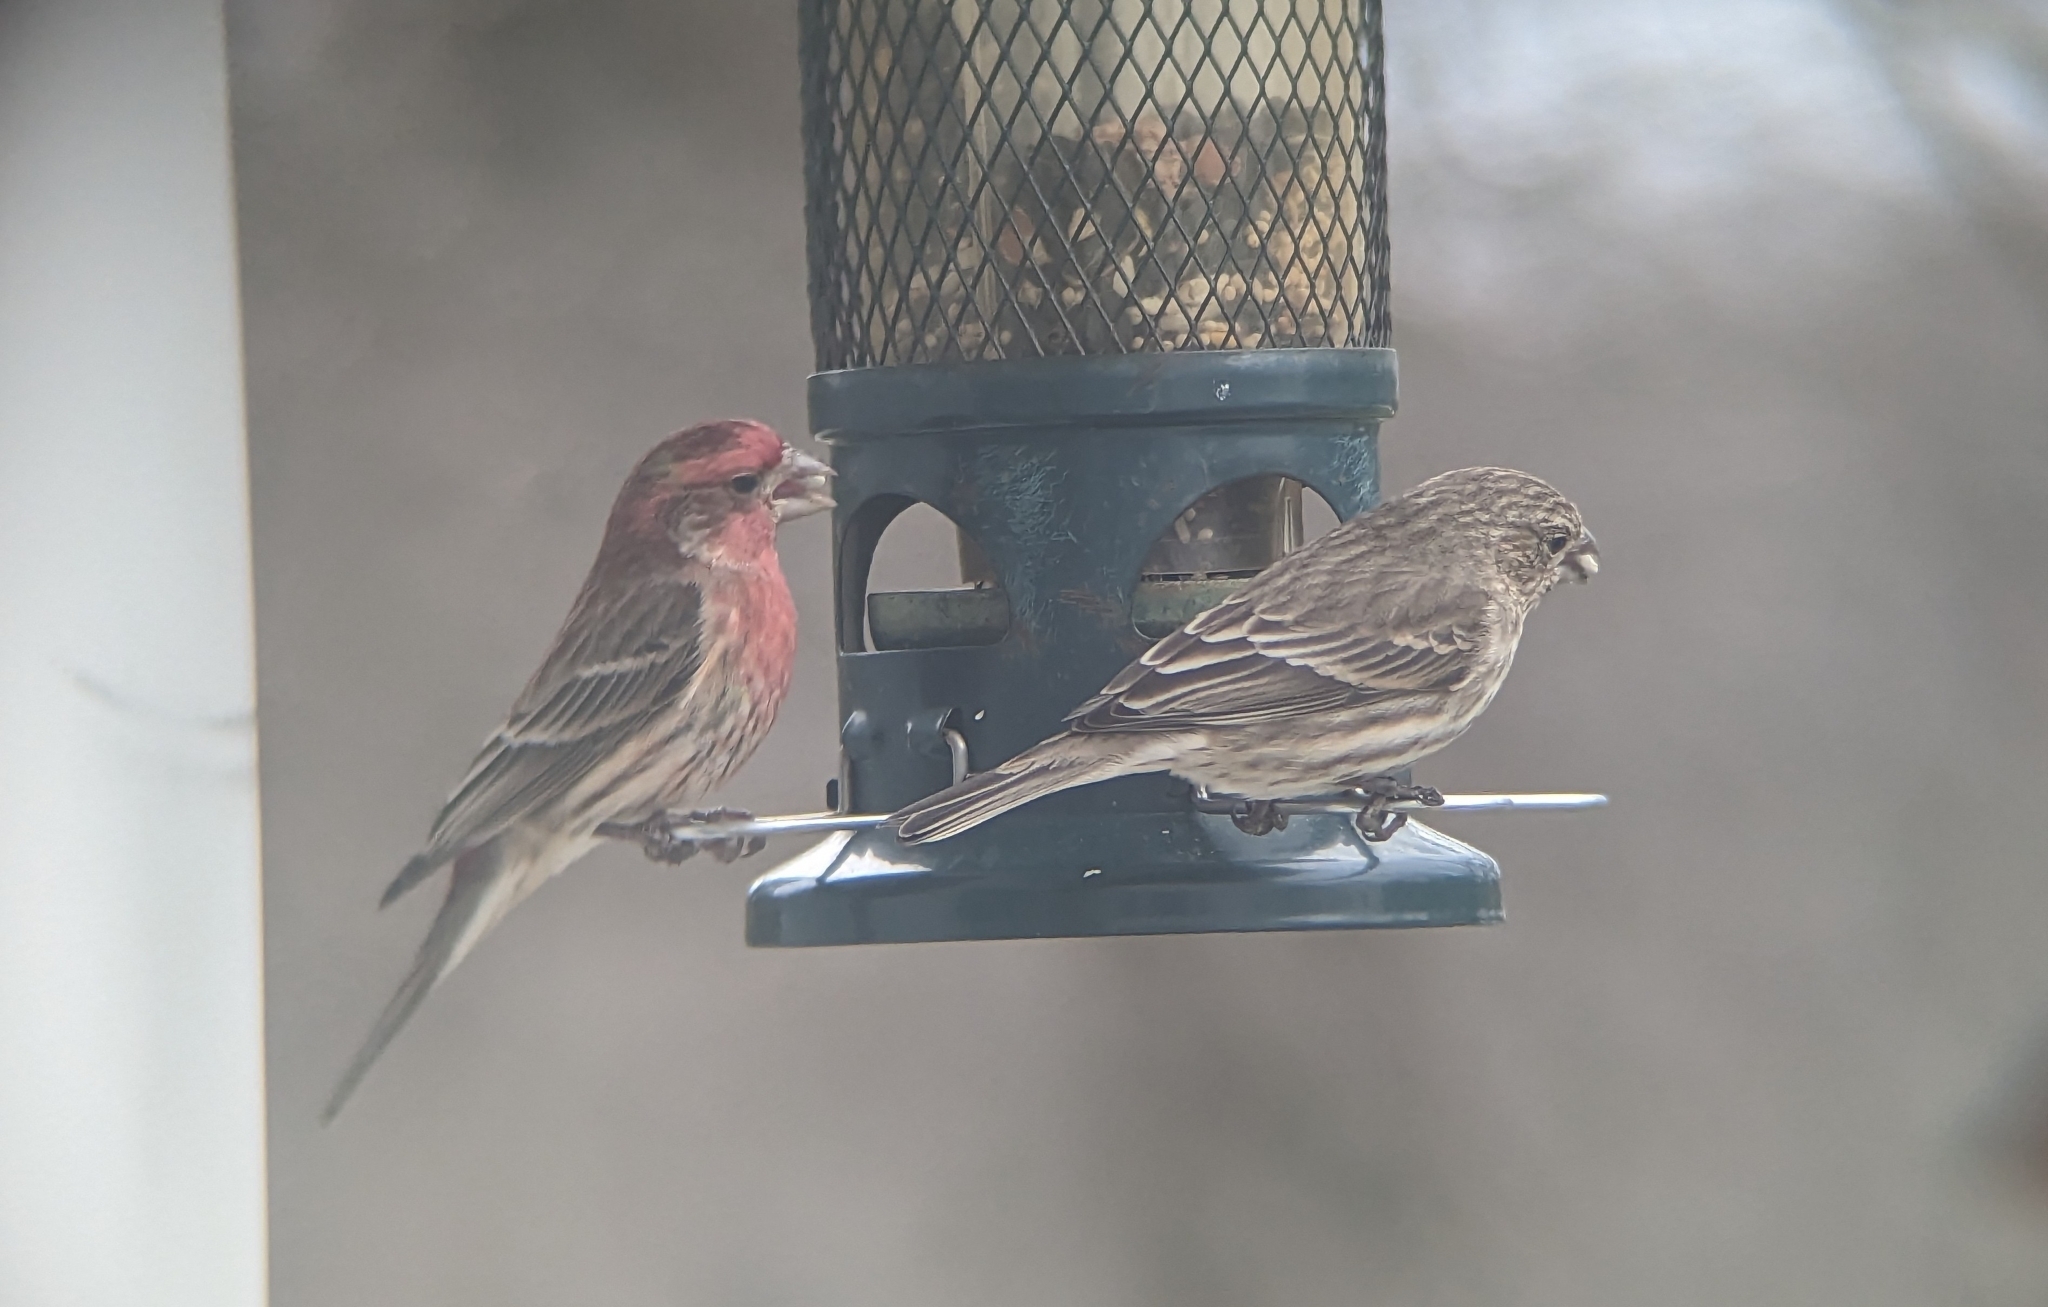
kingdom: Animalia
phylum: Chordata
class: Aves
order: Passeriformes
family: Fringillidae
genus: Haemorhous
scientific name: Haemorhous mexicanus
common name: House finch
